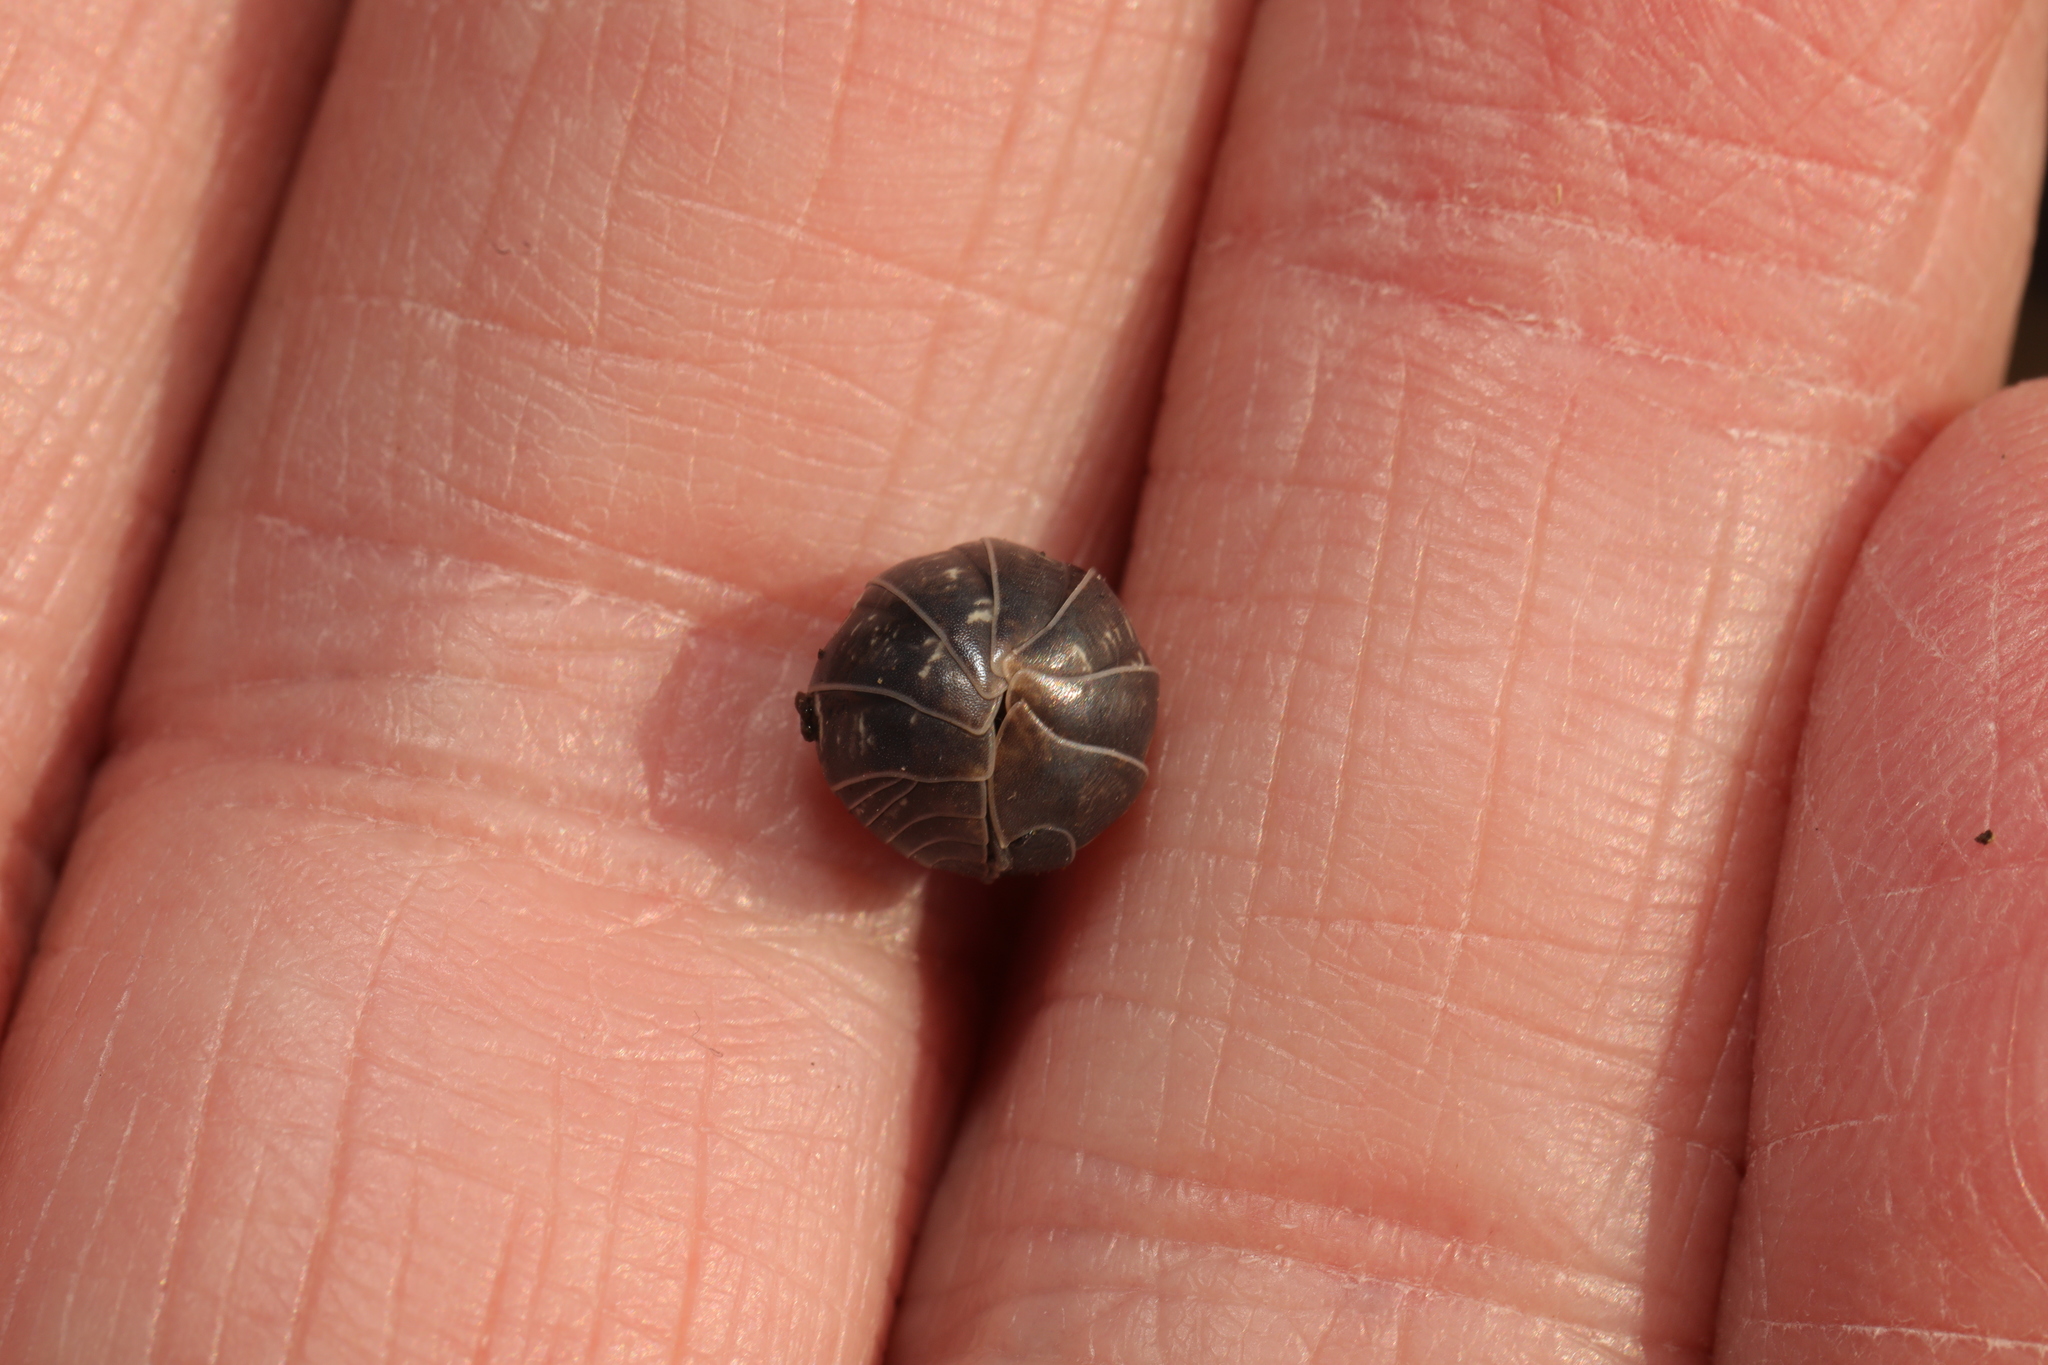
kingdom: Animalia
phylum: Arthropoda
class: Malacostraca
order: Isopoda
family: Armadillidiidae
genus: Armadillidium
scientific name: Armadillidium vulgare
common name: Common pill woodlouse
